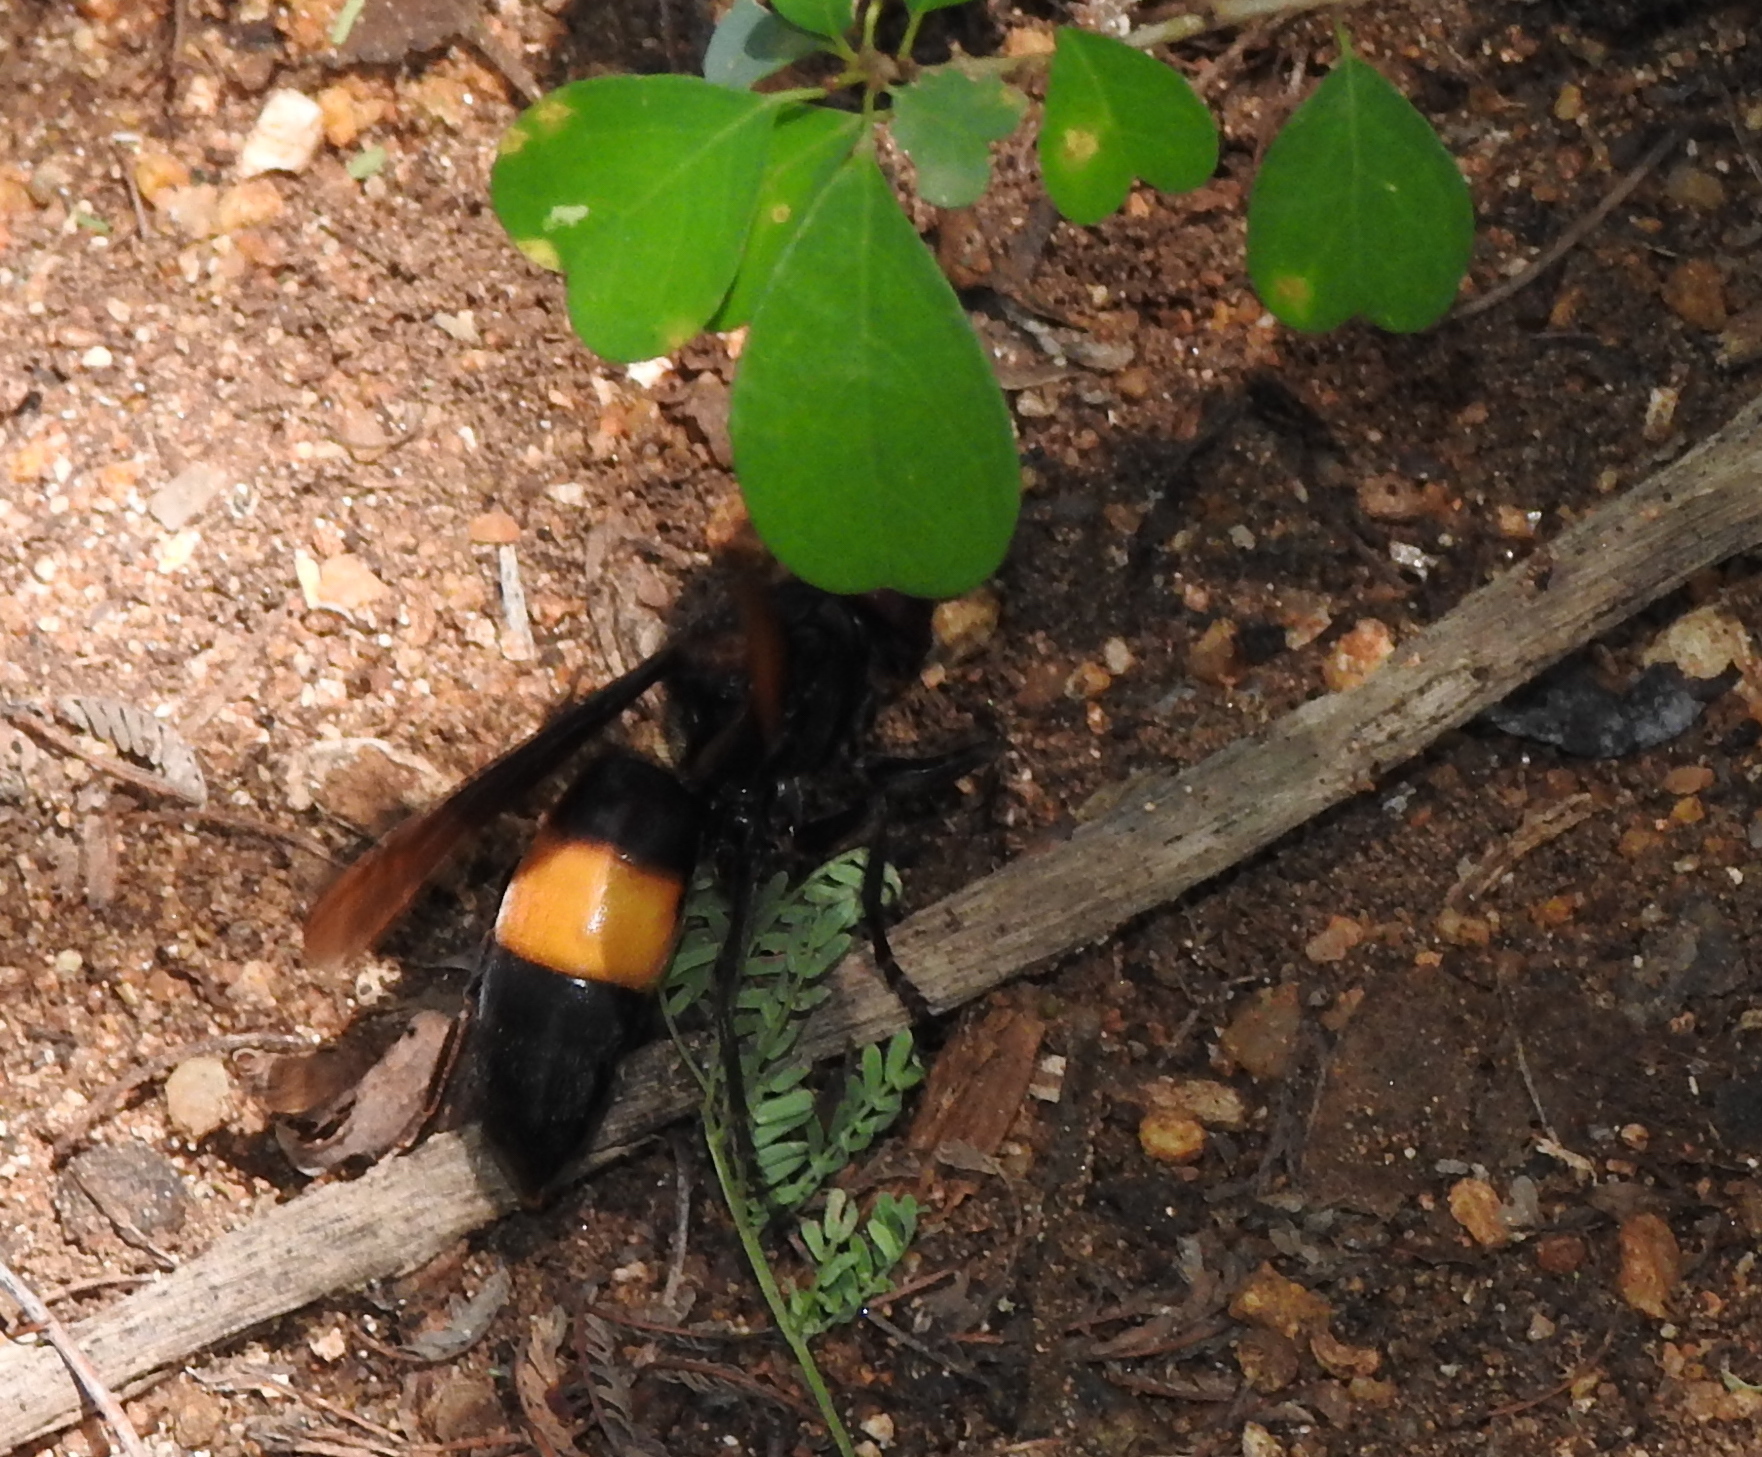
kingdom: Animalia
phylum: Arthropoda
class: Insecta
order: Hymenoptera
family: Vespidae
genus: Vespa
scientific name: Vespa tropica
